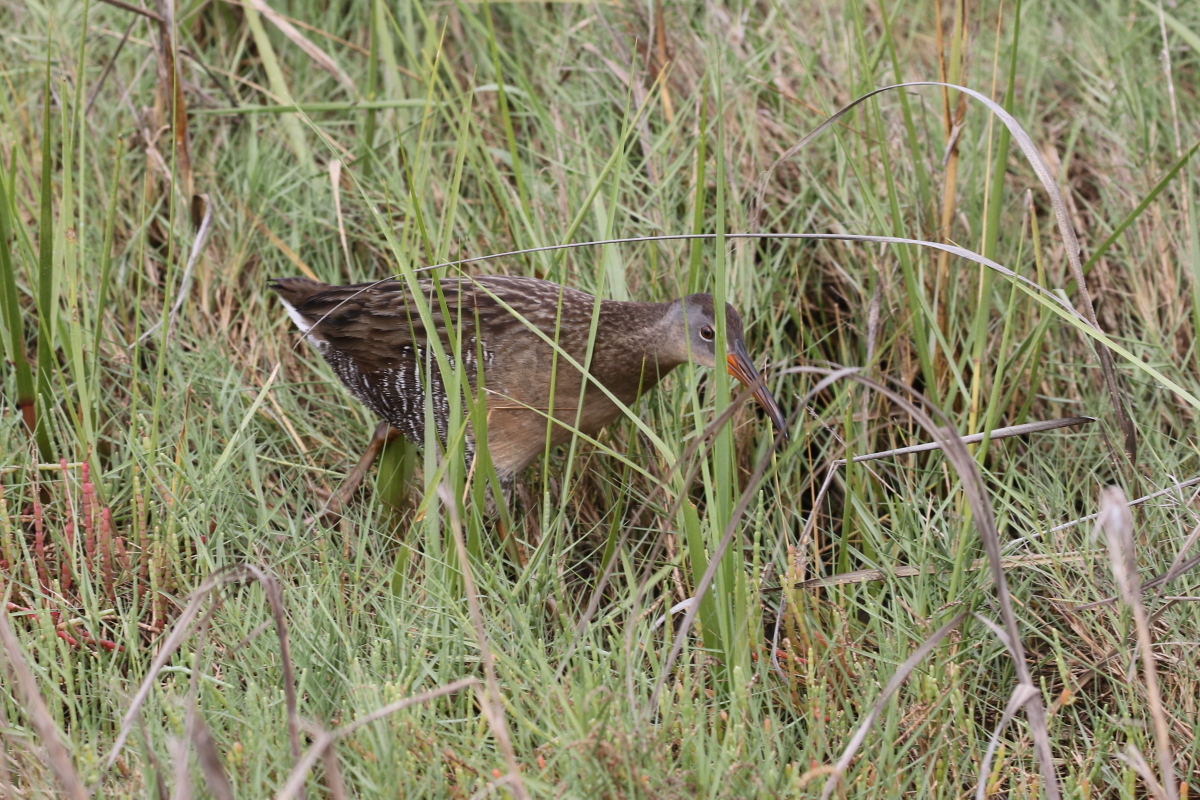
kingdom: Animalia
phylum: Chordata
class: Aves
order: Gruiformes
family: Rallidae
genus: Rallus
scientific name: Rallus crepitans
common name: Clapper rail
